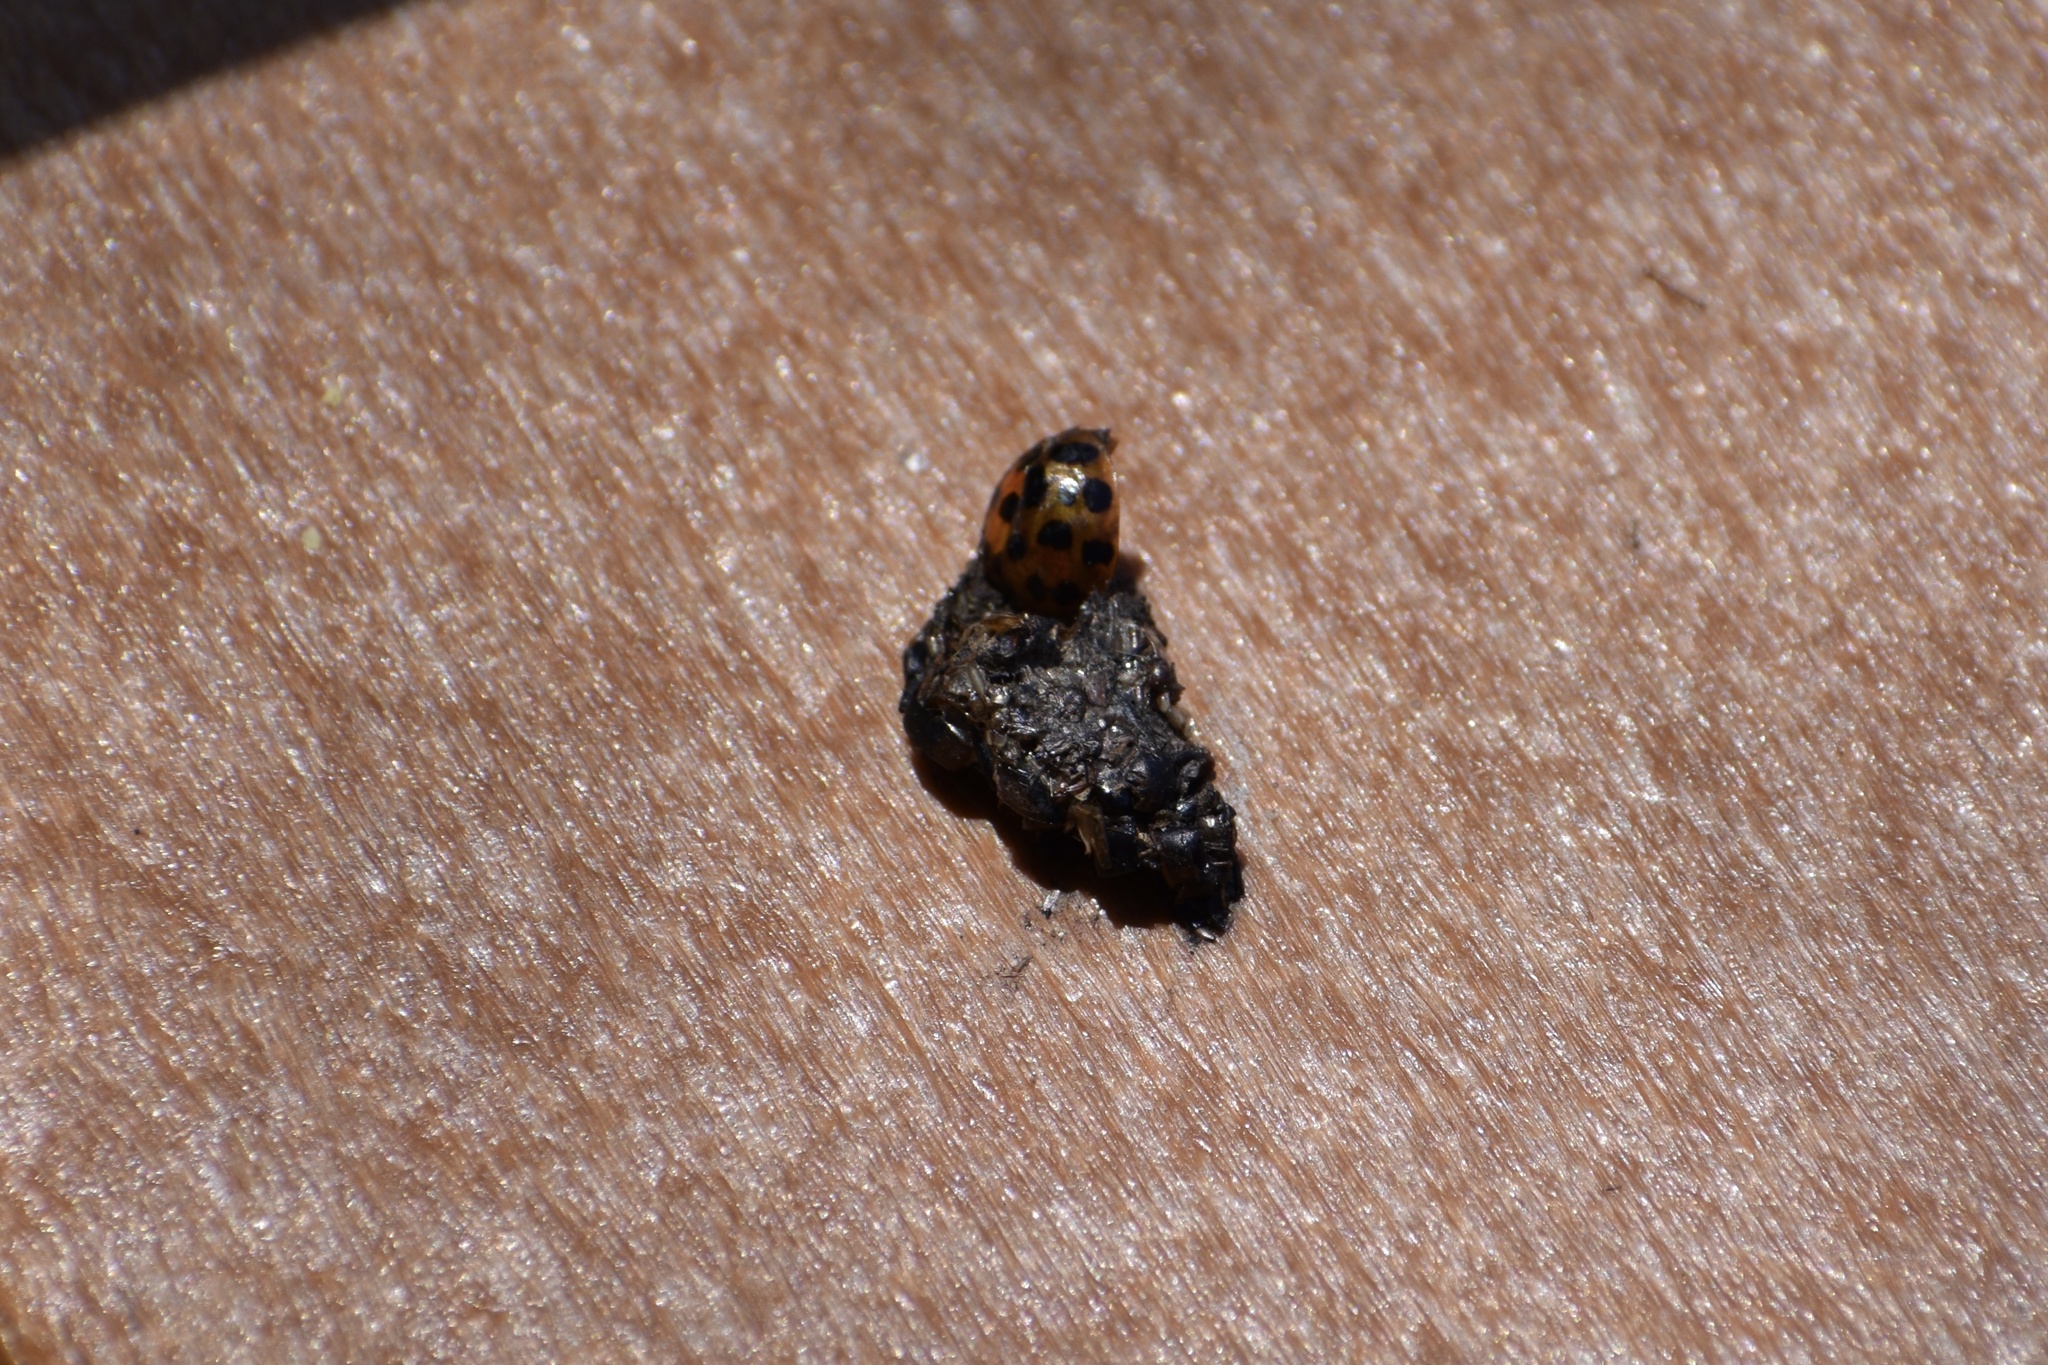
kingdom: Animalia
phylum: Arthropoda
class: Insecta
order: Coleoptera
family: Coccinellidae
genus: Harmonia
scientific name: Harmonia axyridis
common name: Harlequin ladybird
